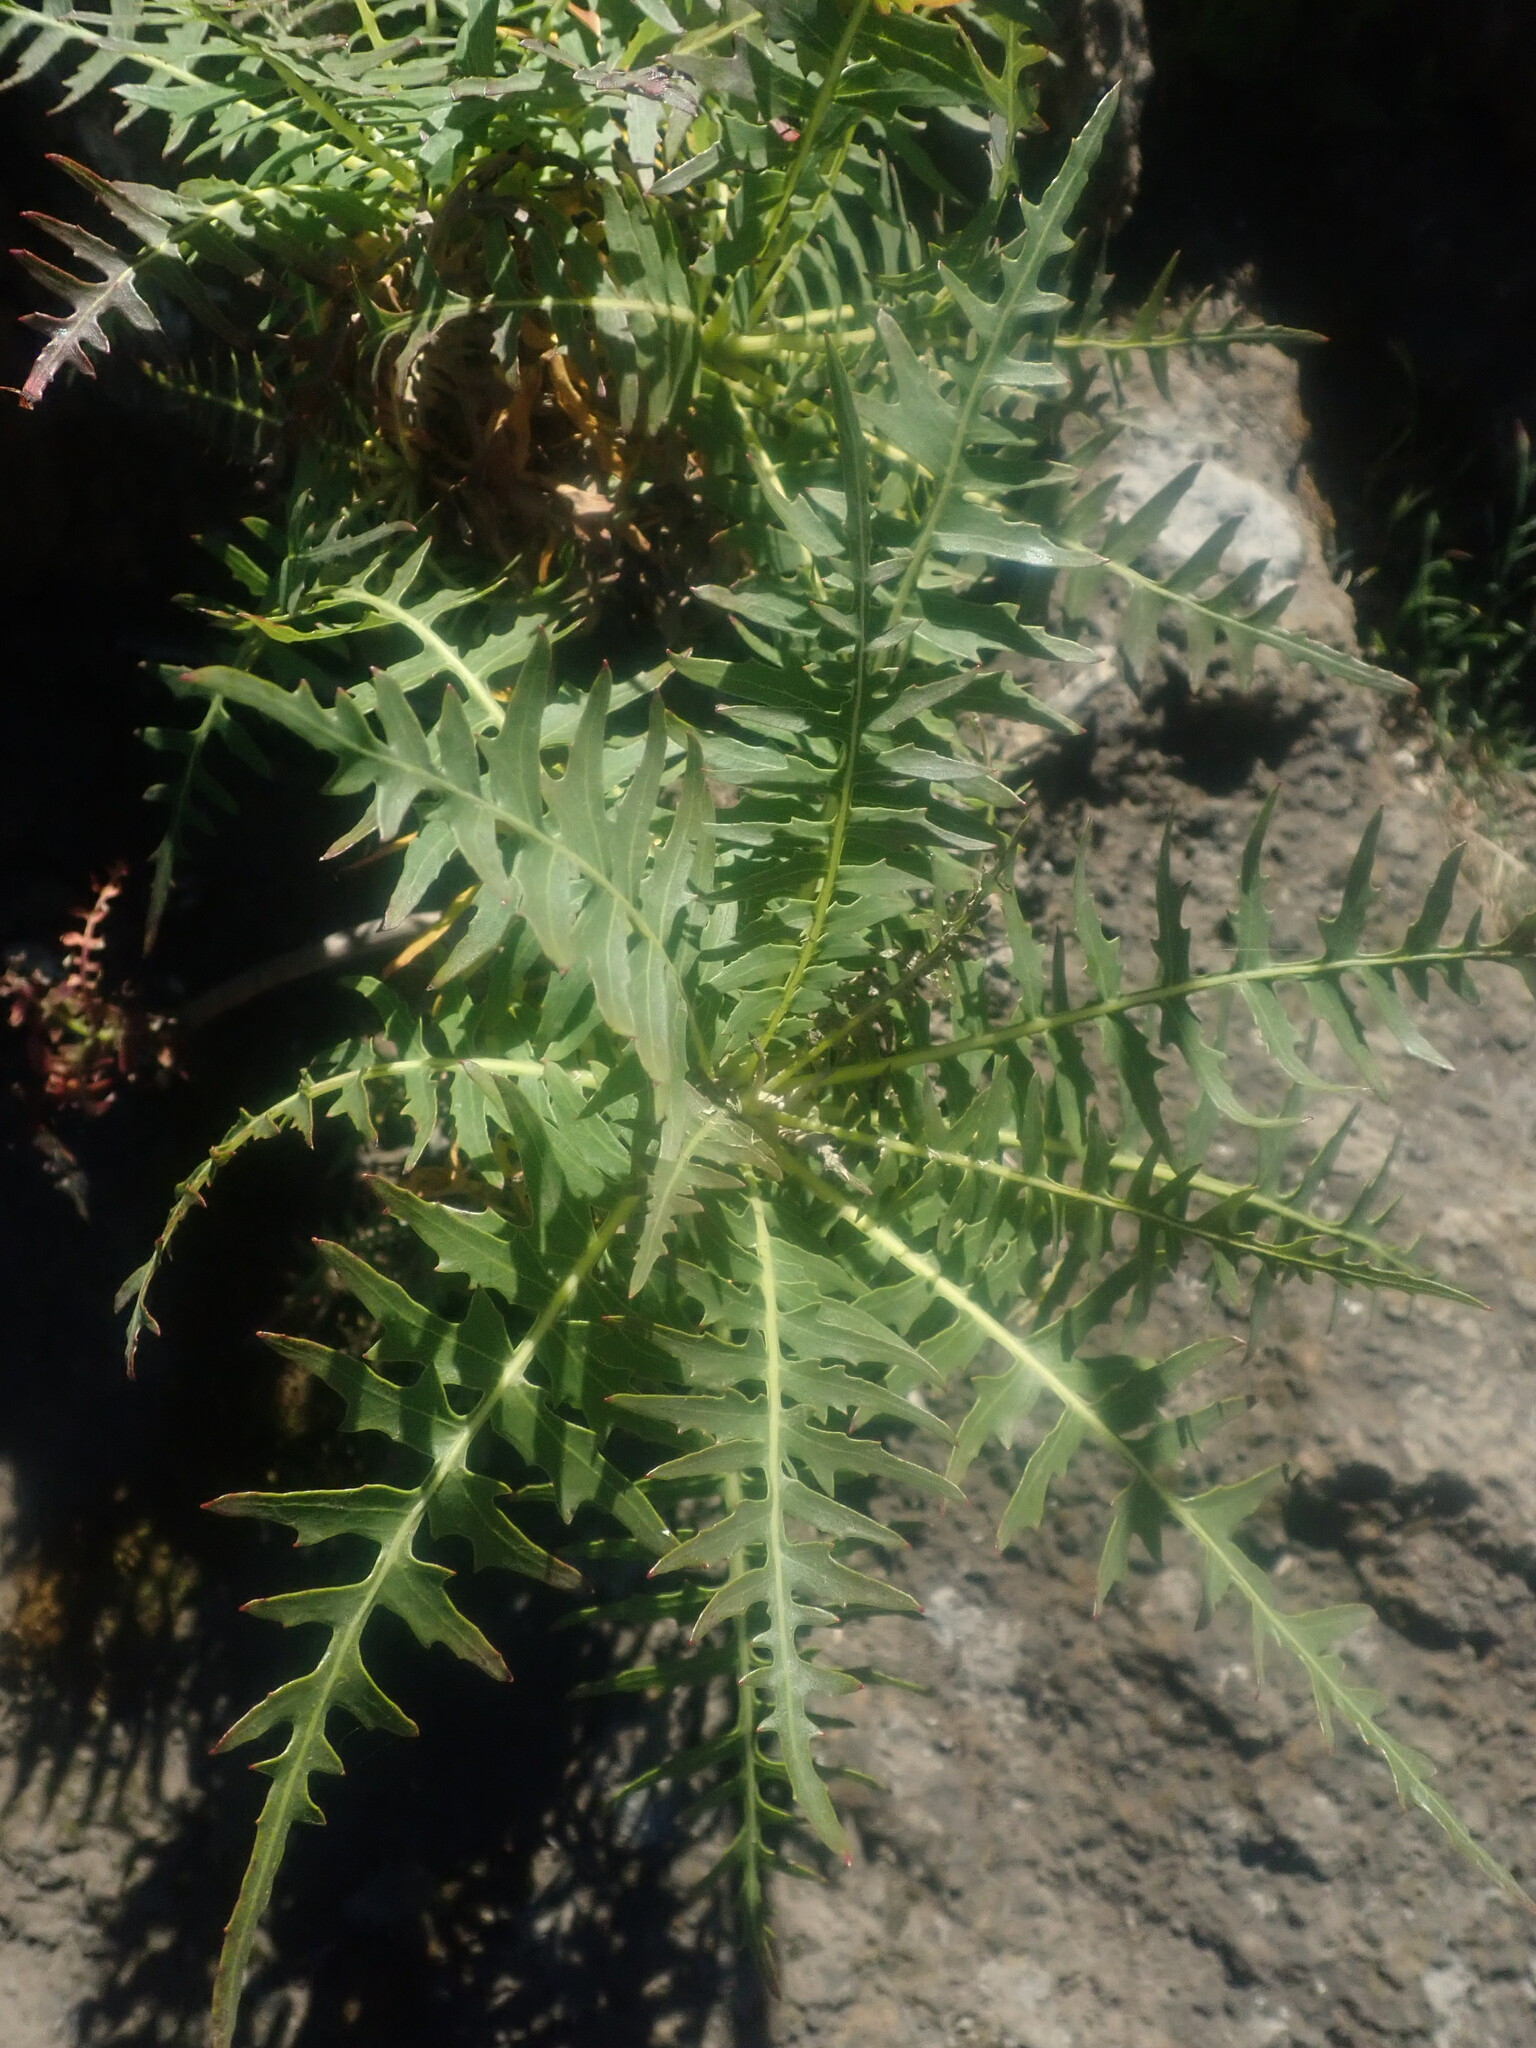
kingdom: Plantae
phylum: Tracheophyta
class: Magnoliopsida
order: Asterales
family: Asteraceae
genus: Sonchus
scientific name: Sonchus pinnatus
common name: Wing-leaved sow-thistle
